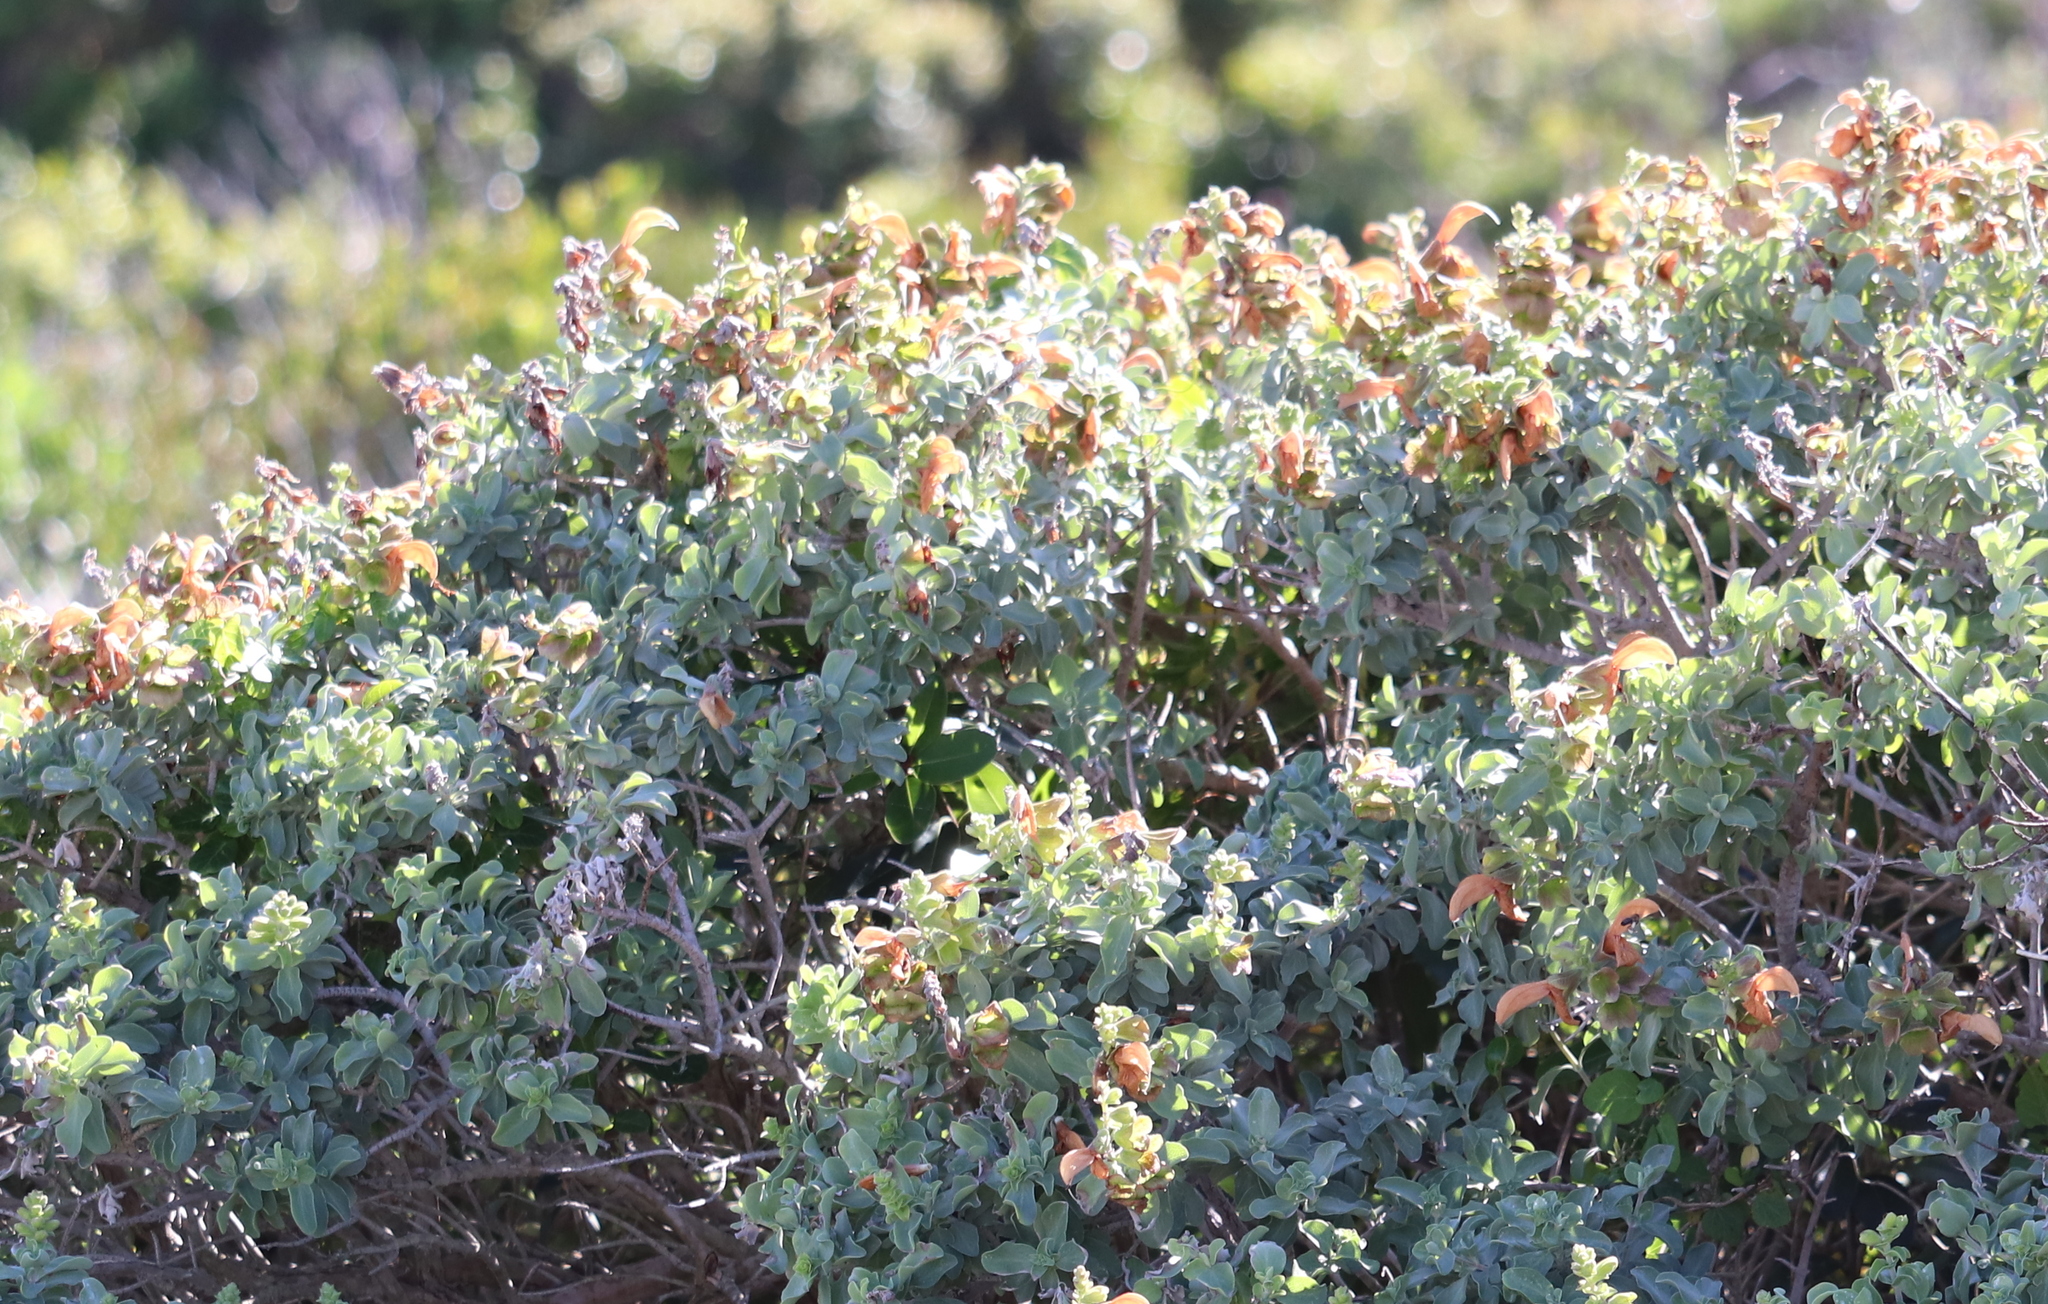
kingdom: Plantae
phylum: Tracheophyta
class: Magnoliopsida
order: Lamiales
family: Lamiaceae
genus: Salvia
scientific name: Salvia aurea
